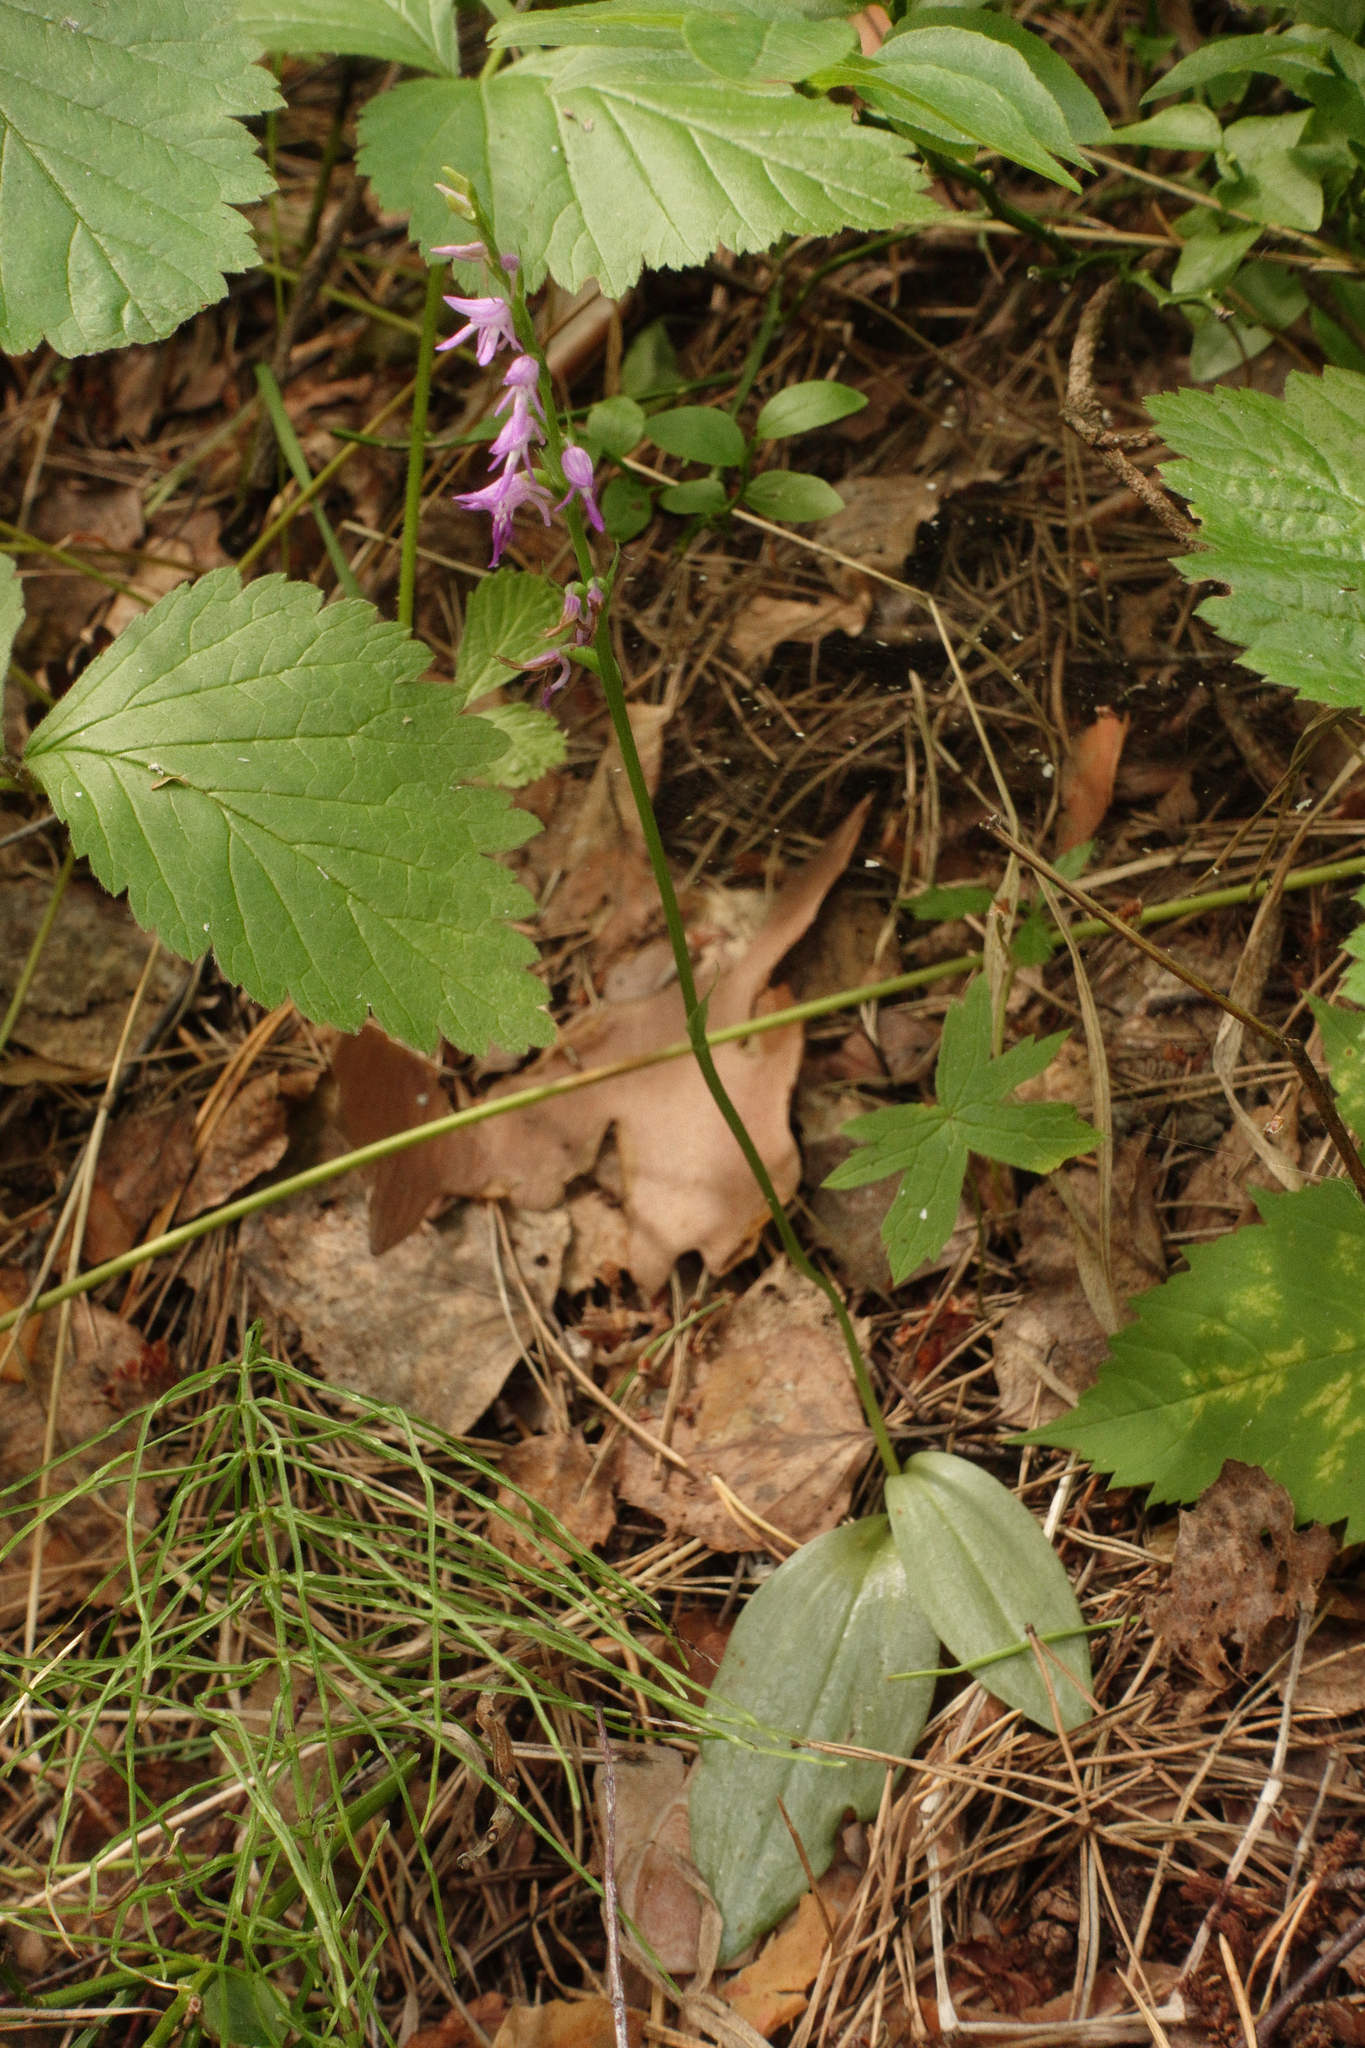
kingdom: Plantae
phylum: Tracheophyta
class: Liliopsida
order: Asparagales
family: Orchidaceae
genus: Hemipilia
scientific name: Hemipilia cucullata
